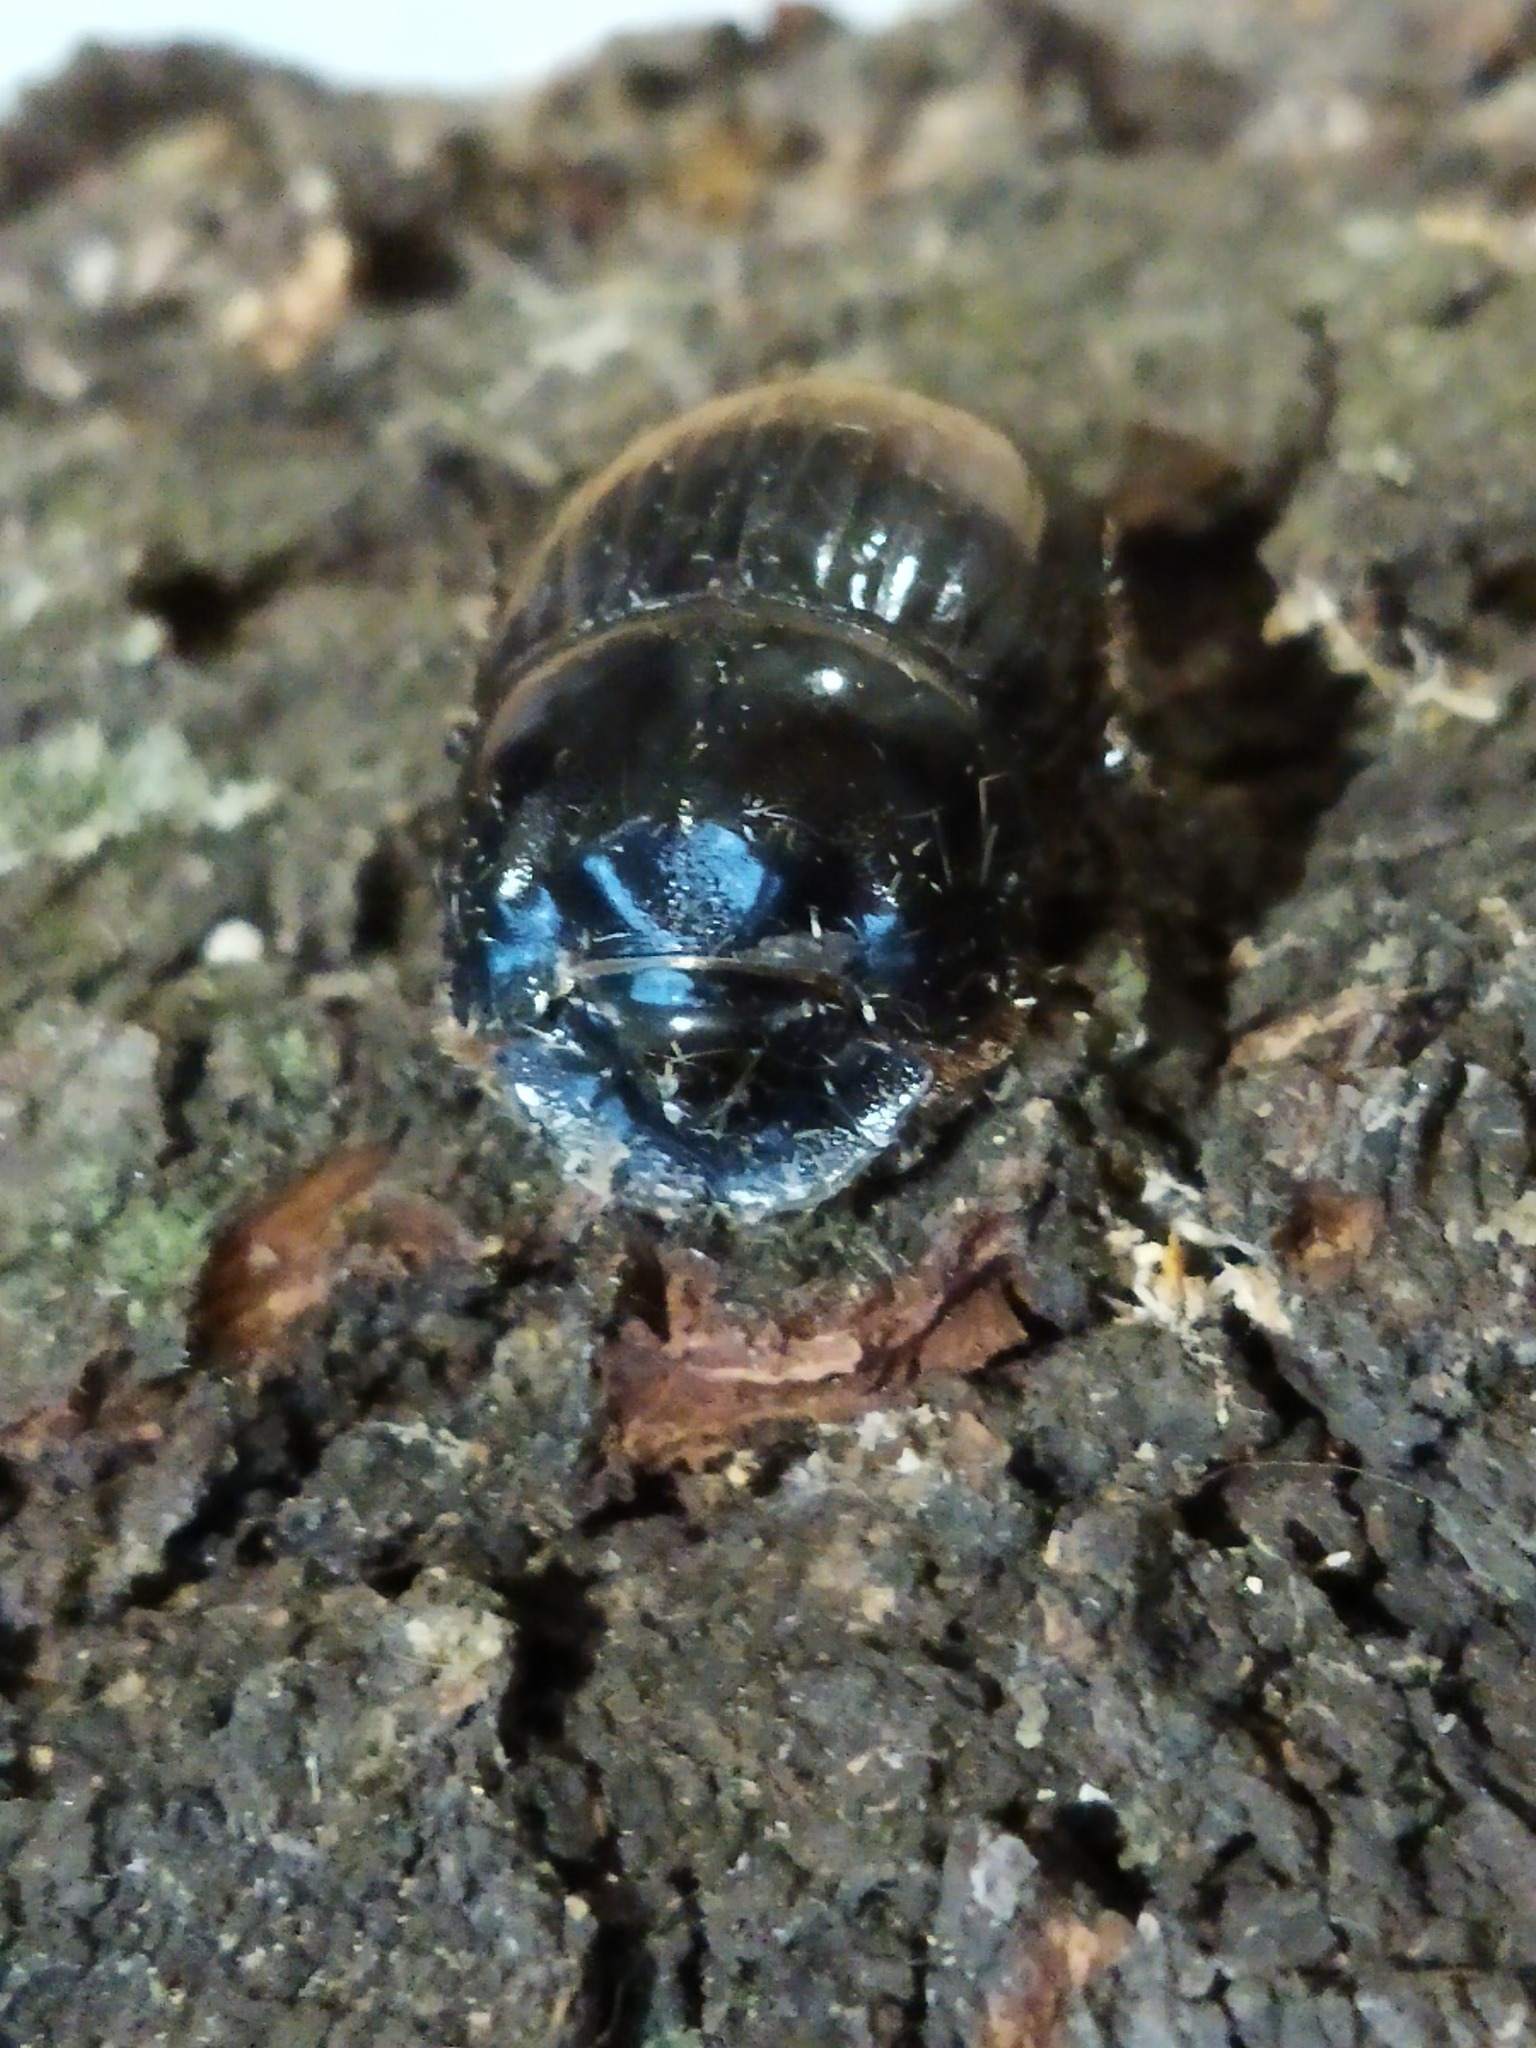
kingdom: Animalia
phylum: Arthropoda
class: Insecta
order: Coleoptera
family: Scarabaeidae
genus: Copris
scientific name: Copris lunaris
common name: Horned dung beetle
